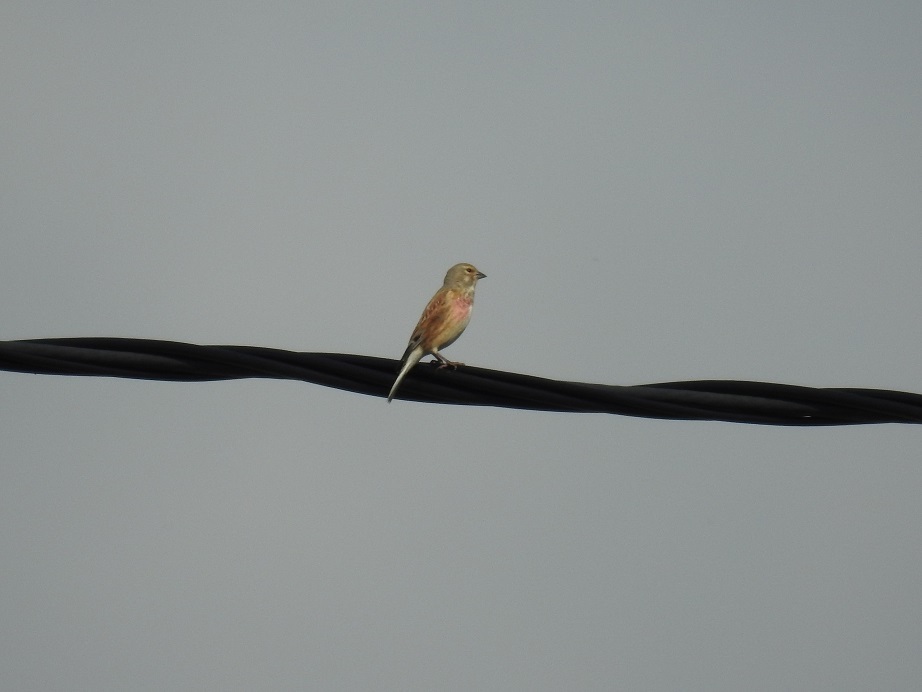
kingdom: Animalia
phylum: Chordata
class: Aves
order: Passeriformes
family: Fringillidae
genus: Linaria
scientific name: Linaria cannabina
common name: Common linnet
